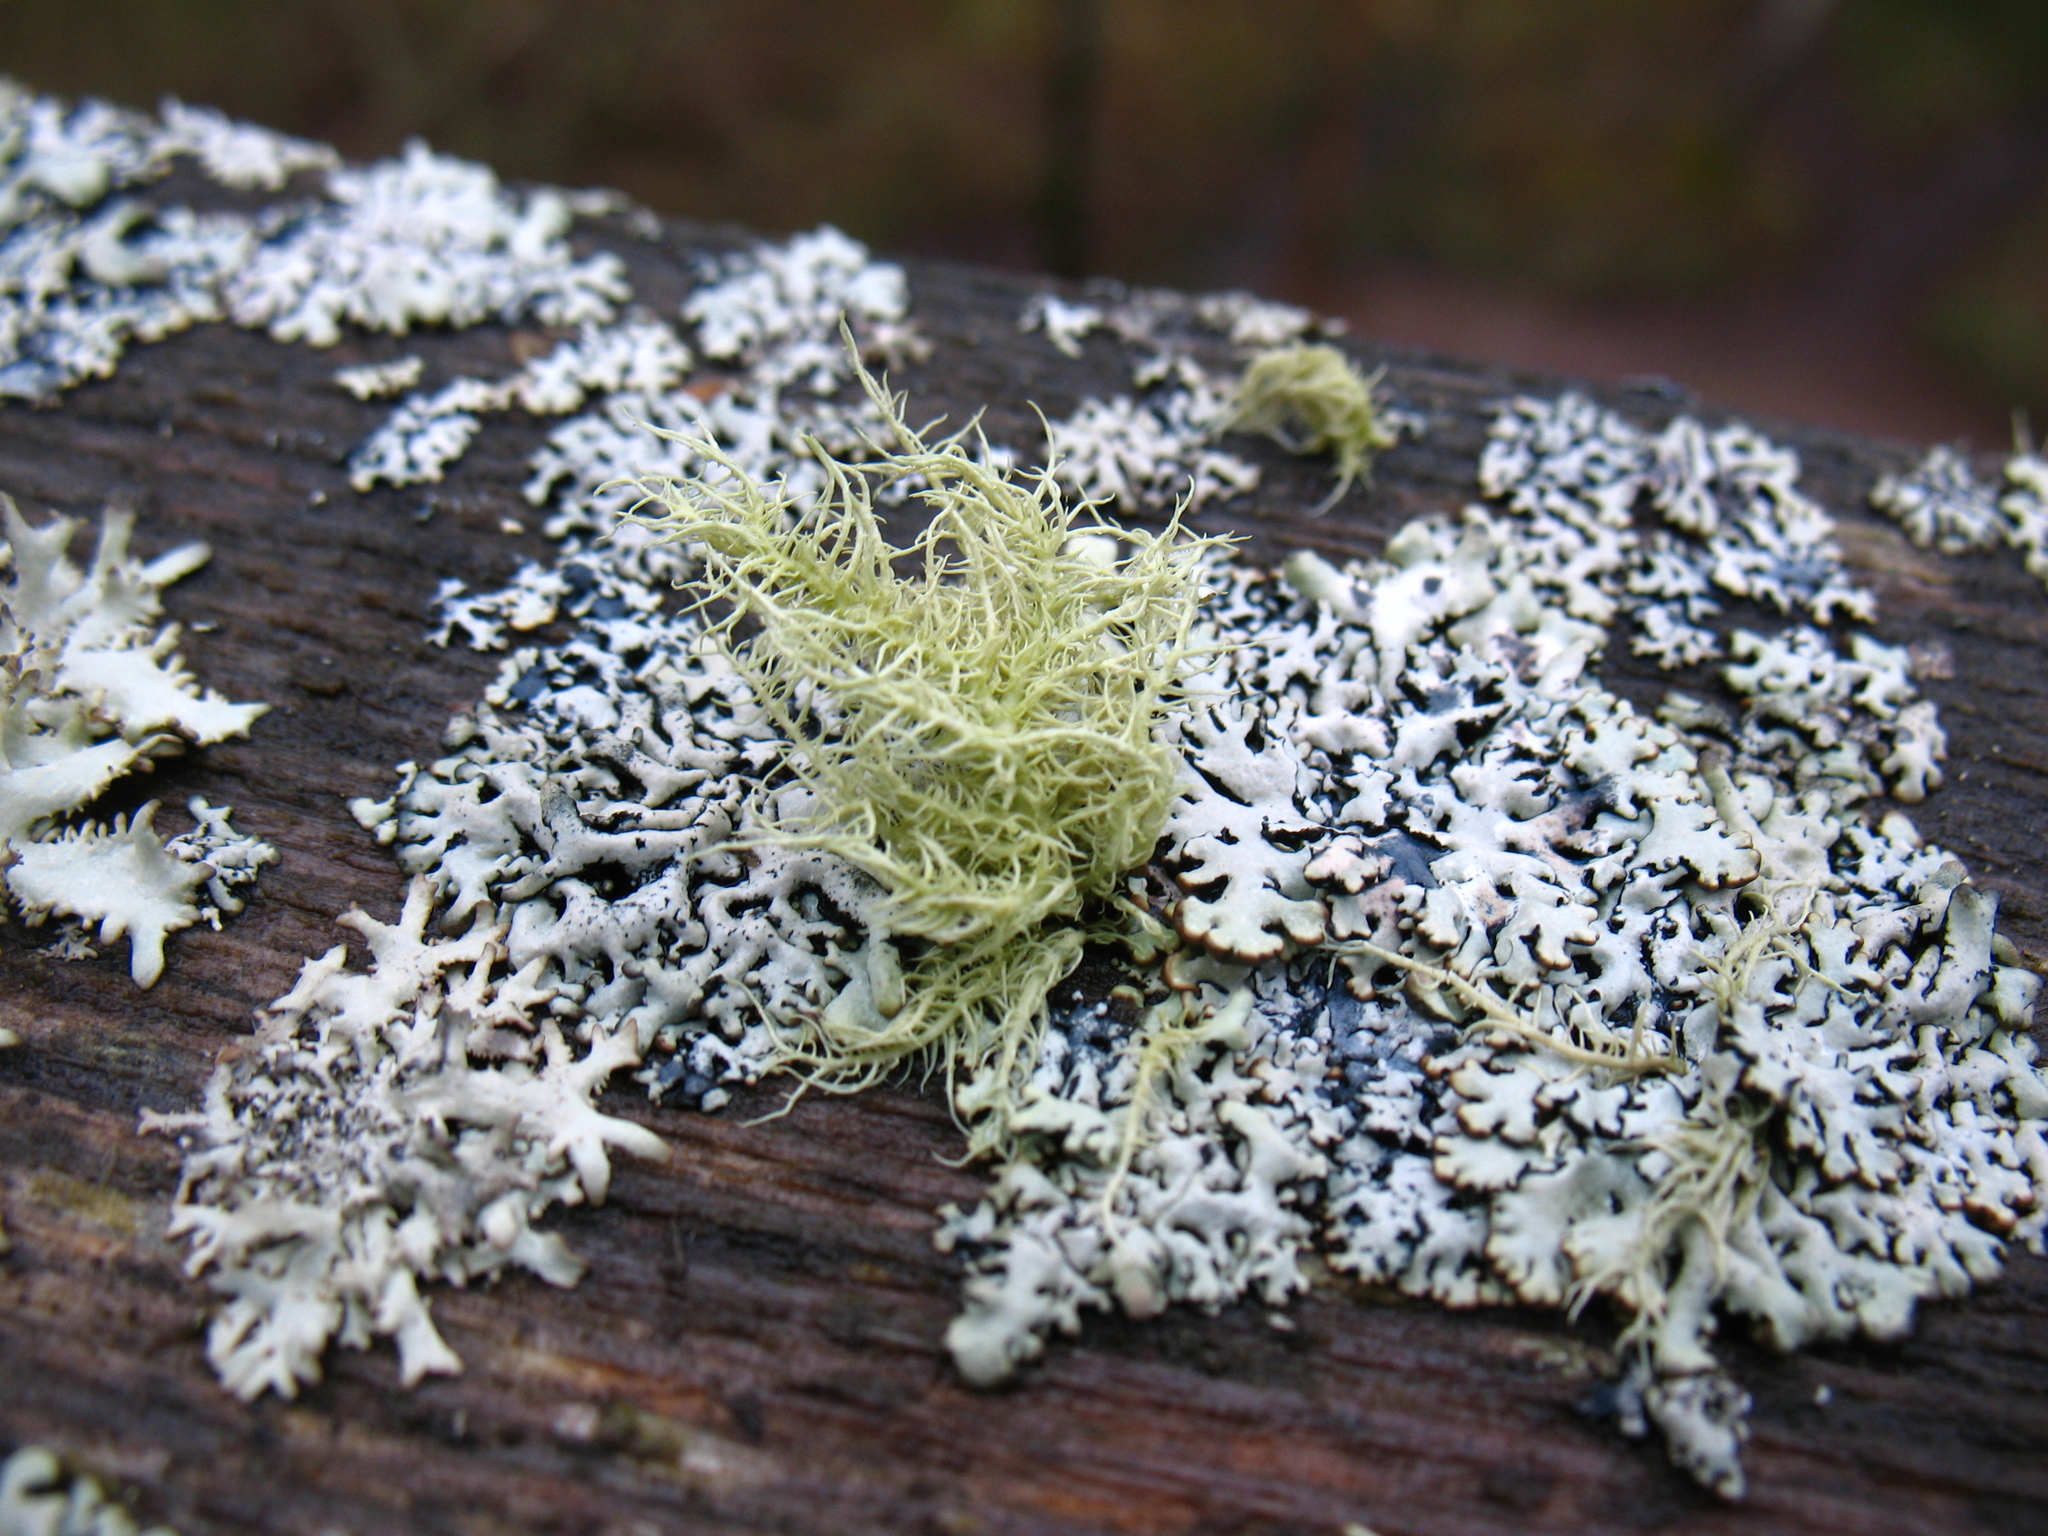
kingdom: Fungi
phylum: Ascomycota
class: Lecanoromycetes
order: Lecanorales
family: Parmeliaceae
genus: Usnea
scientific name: Usnea hirta
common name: Bristly beard lichen
